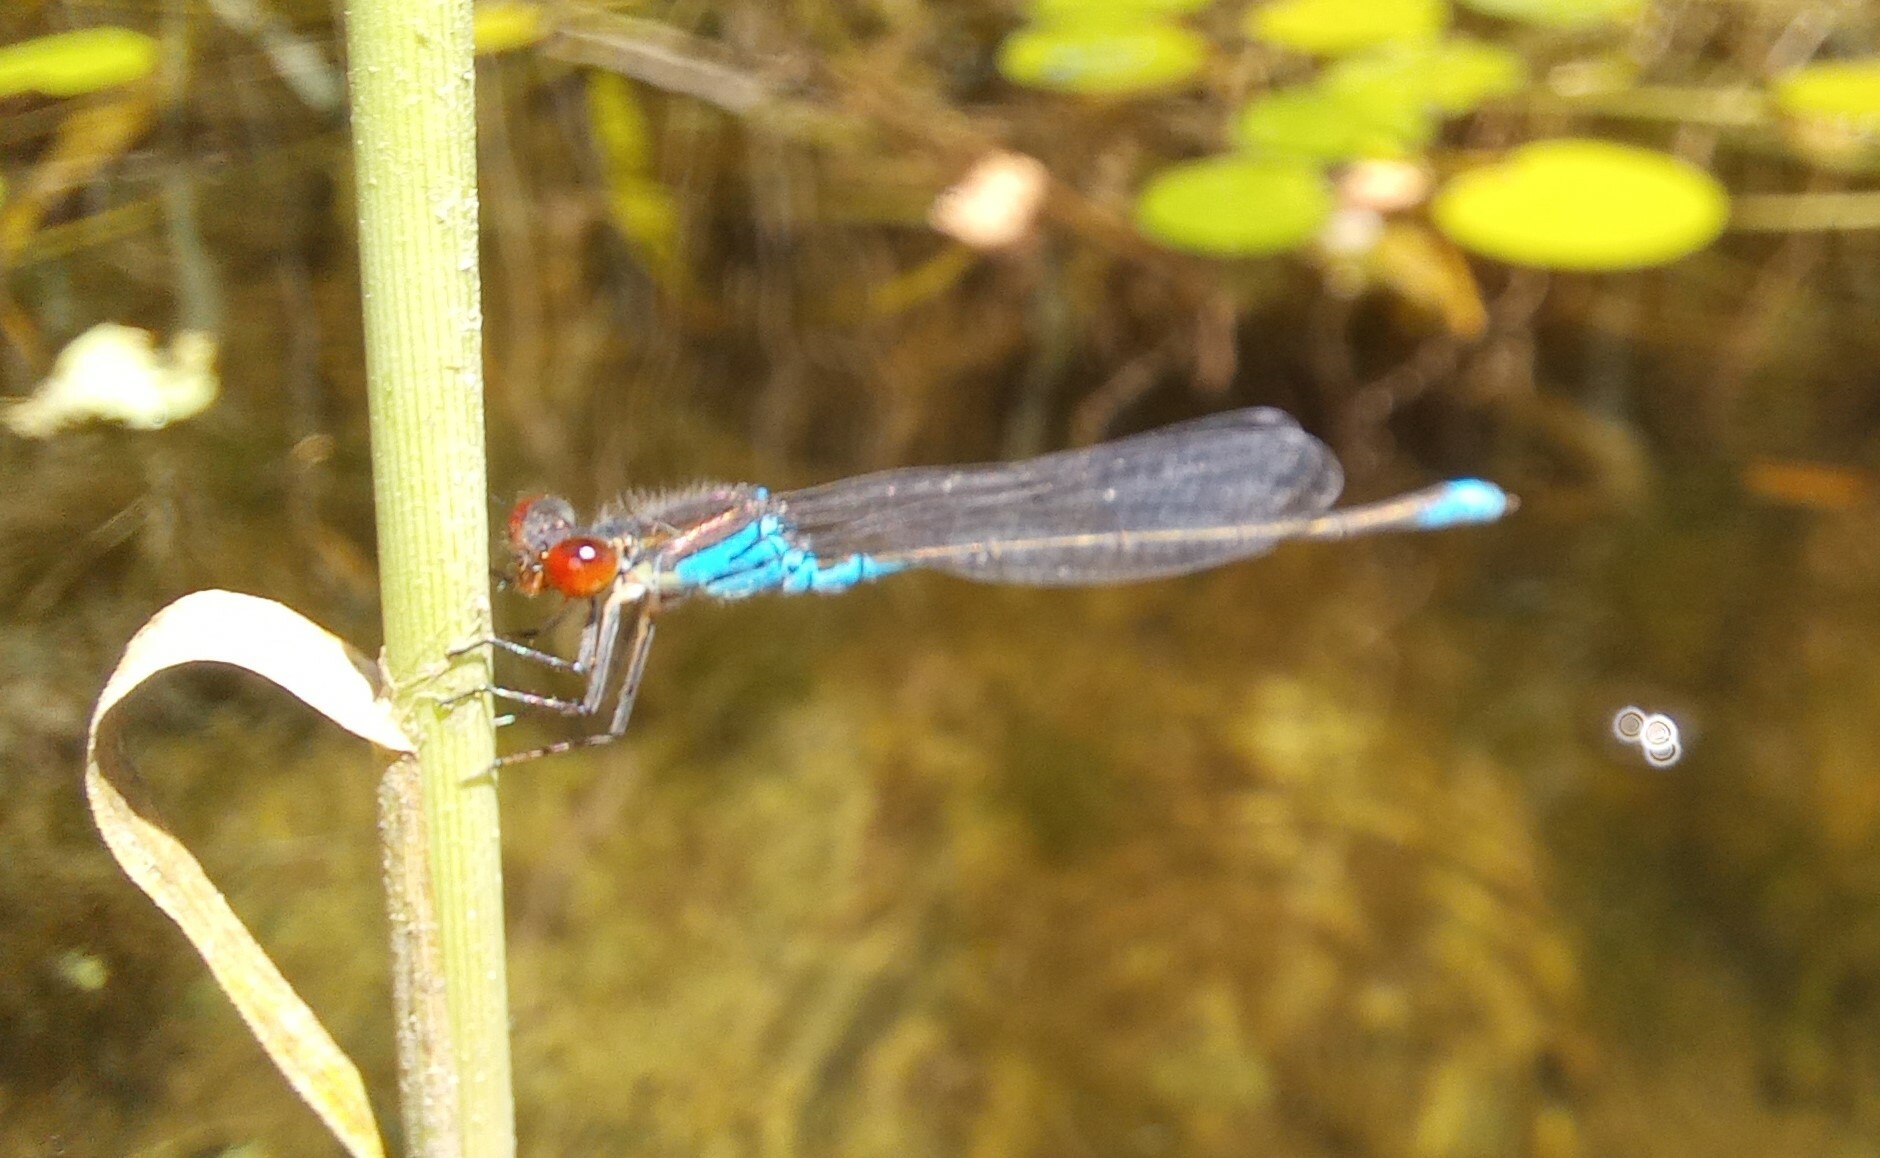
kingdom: Animalia
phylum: Arthropoda
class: Insecta
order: Odonata
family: Coenagrionidae
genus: Erythromma
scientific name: Erythromma viridulum
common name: Small red-eyed damselfly
